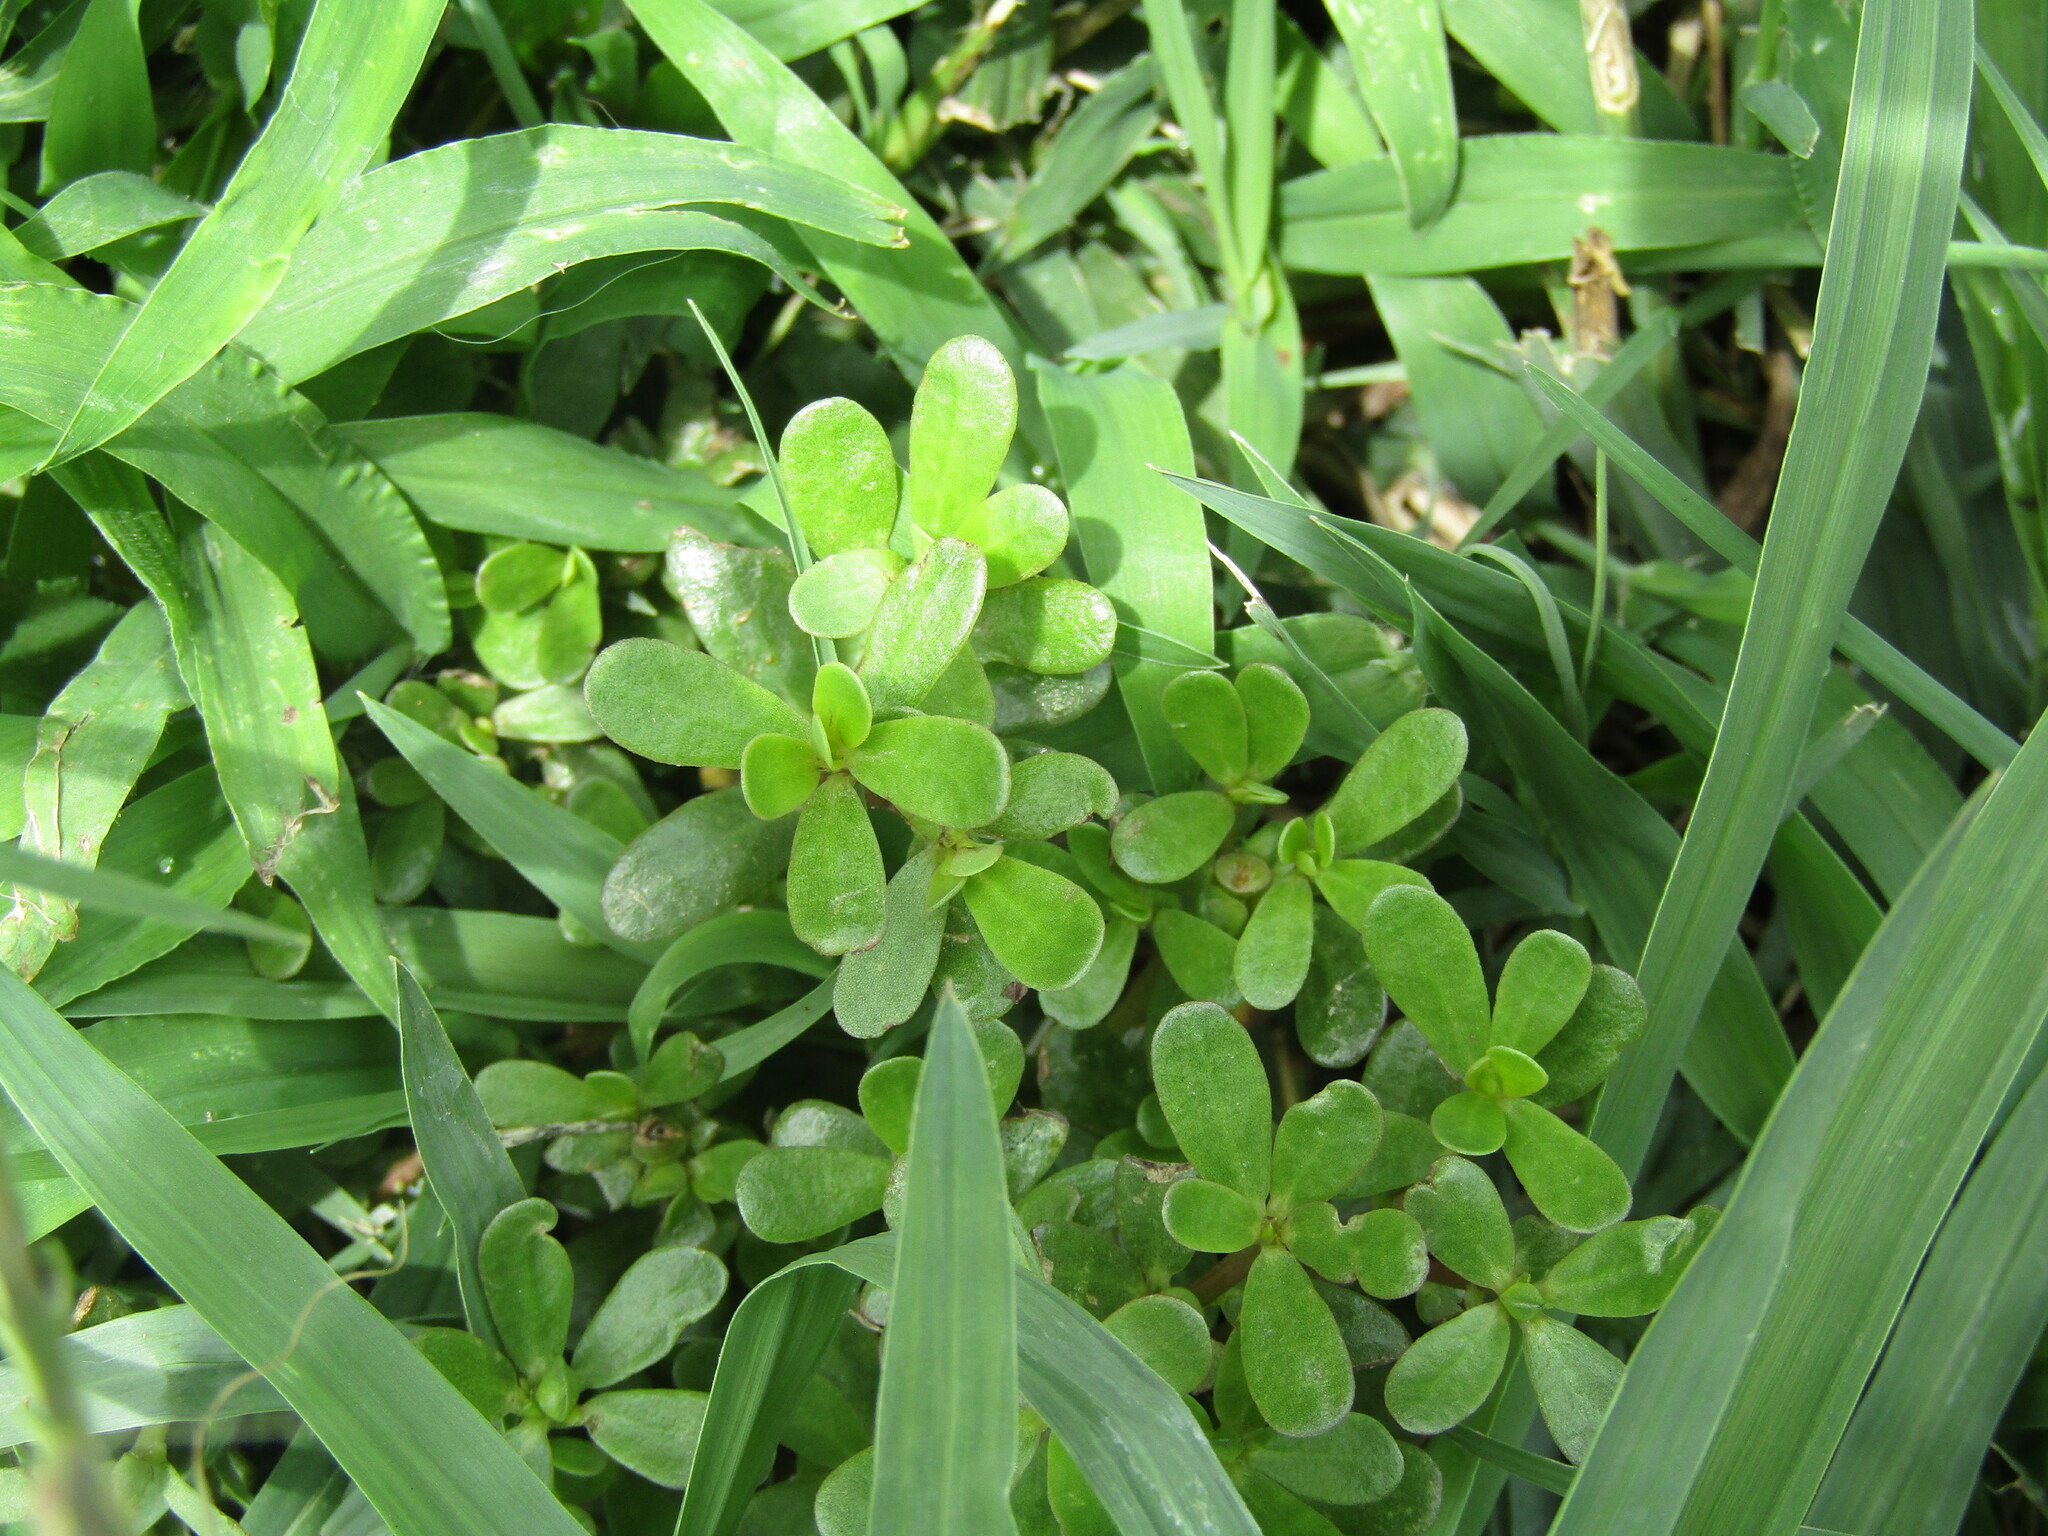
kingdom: Plantae
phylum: Tracheophyta
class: Magnoliopsida
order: Caryophyllales
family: Portulacaceae
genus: Portulaca
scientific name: Portulaca oleracea
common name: Common purslane
